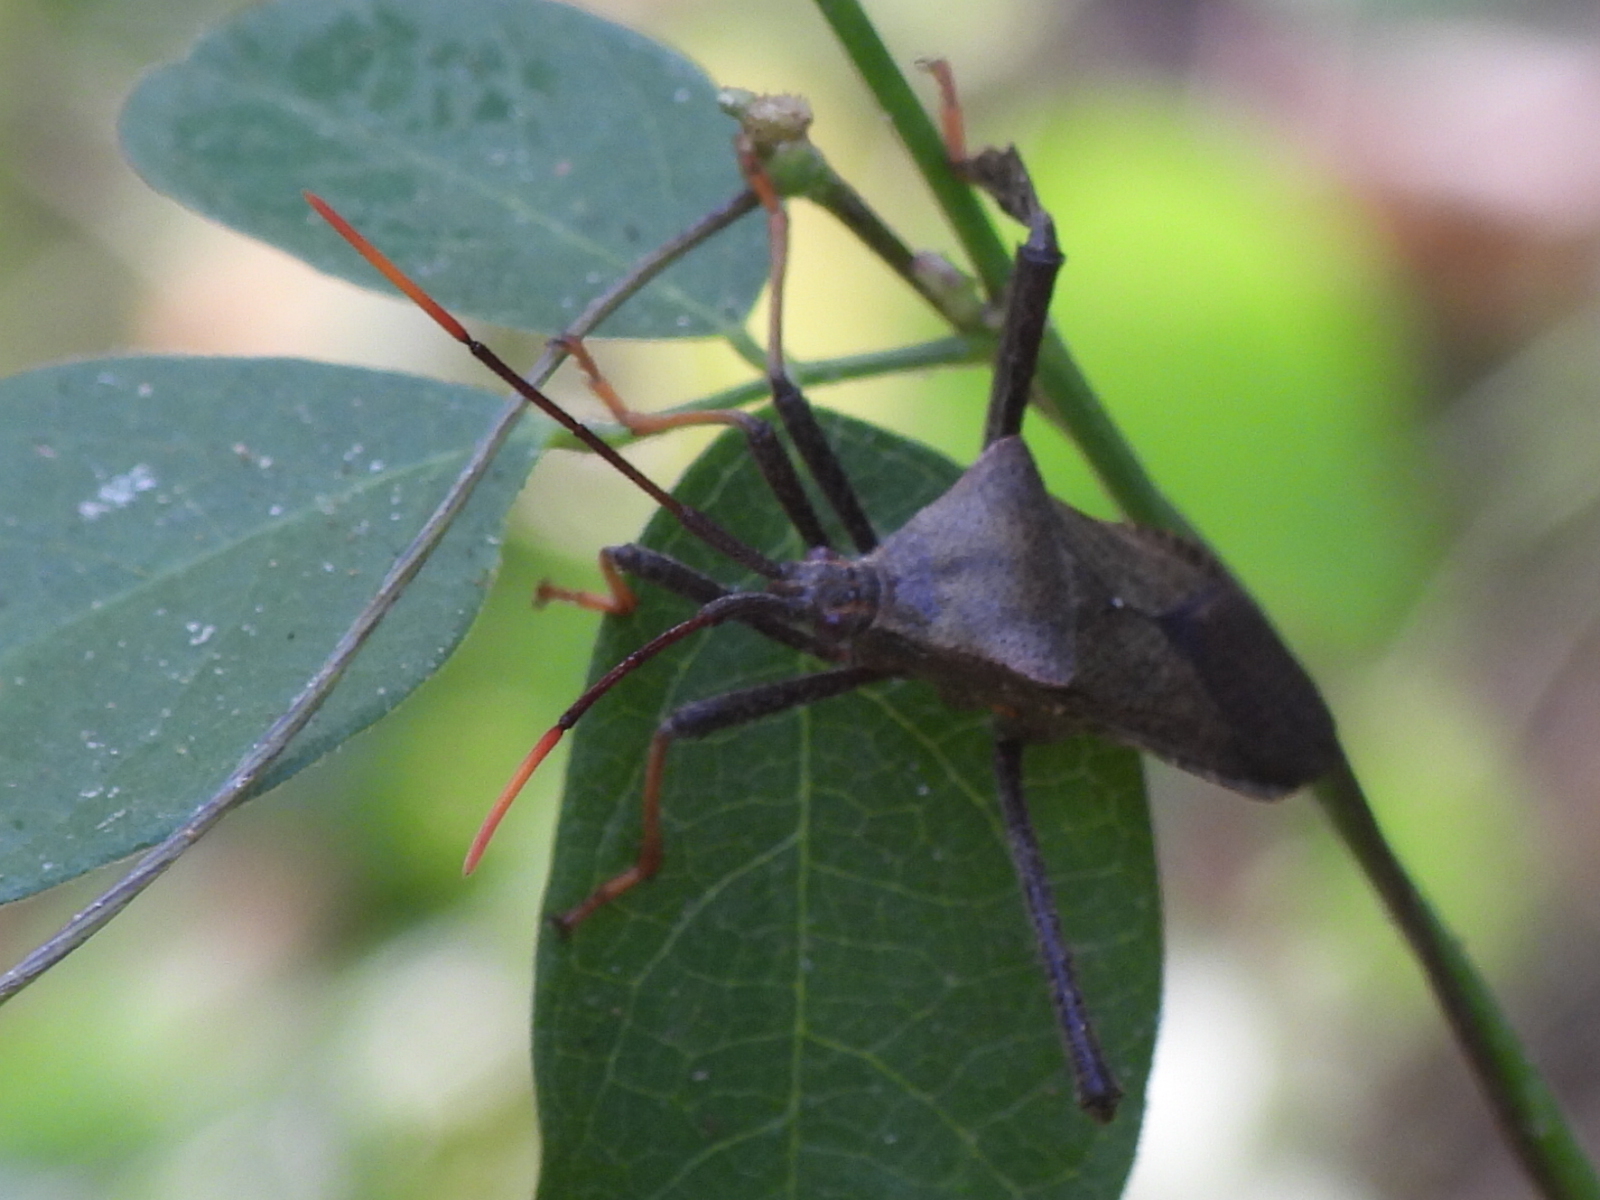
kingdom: Animalia
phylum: Arthropoda
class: Insecta
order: Hemiptera
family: Coreidae
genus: Acanthocephala
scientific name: Acanthocephala terminalis
